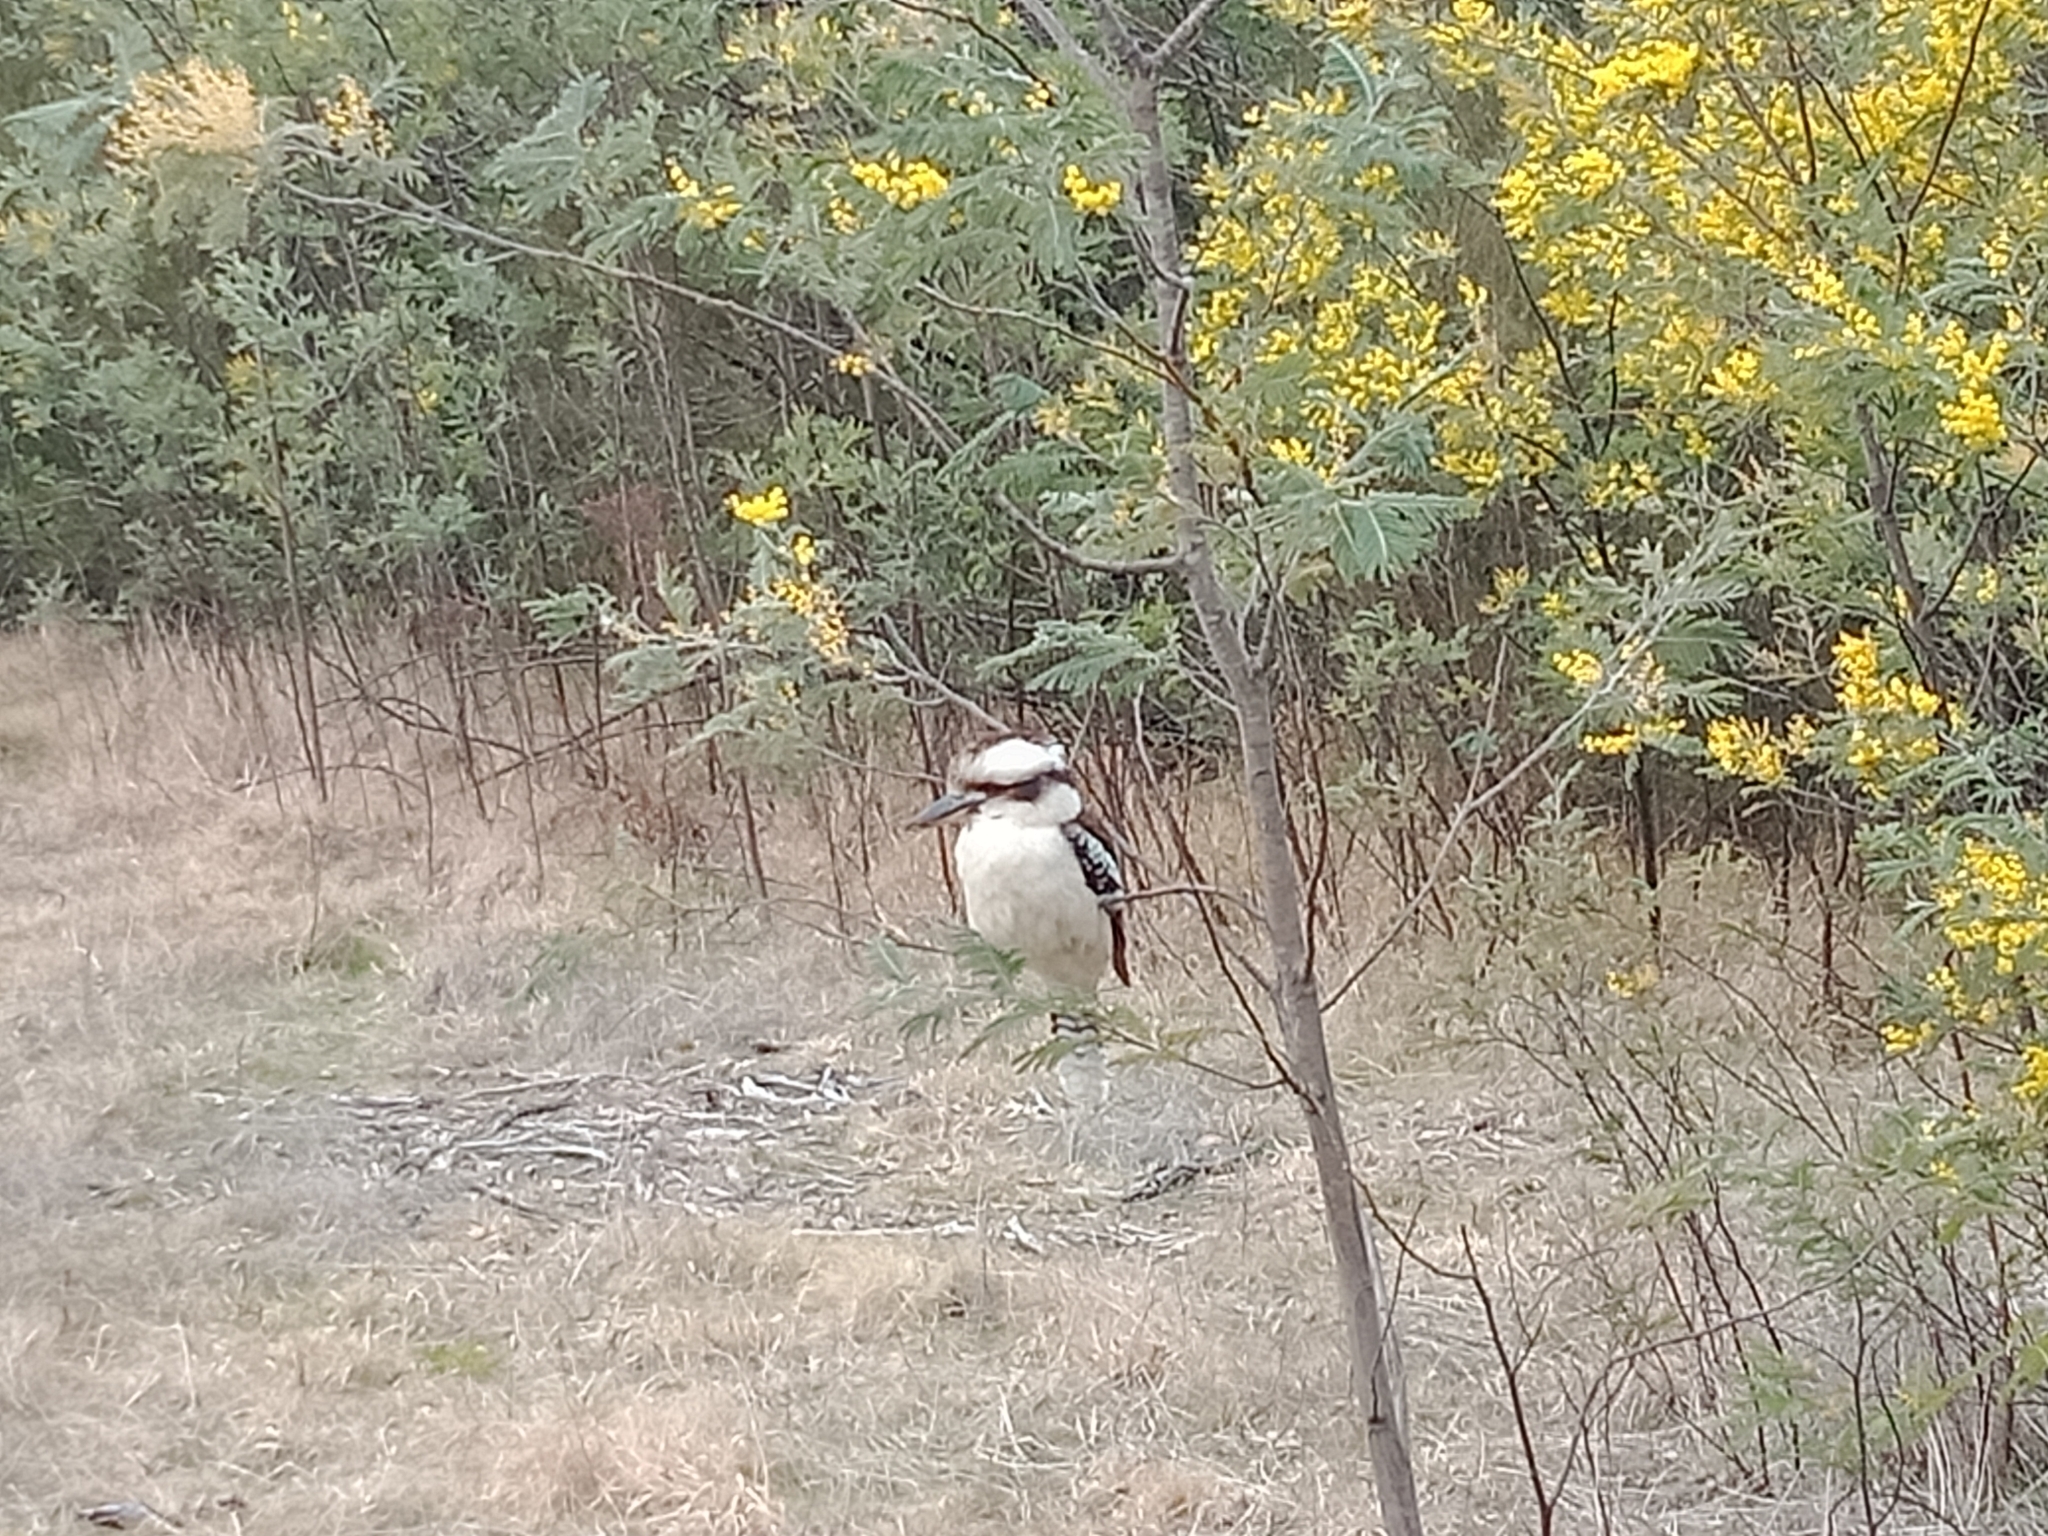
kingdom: Animalia
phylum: Chordata
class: Aves
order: Coraciiformes
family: Alcedinidae
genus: Dacelo
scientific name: Dacelo novaeguineae
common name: Laughing kookaburra
